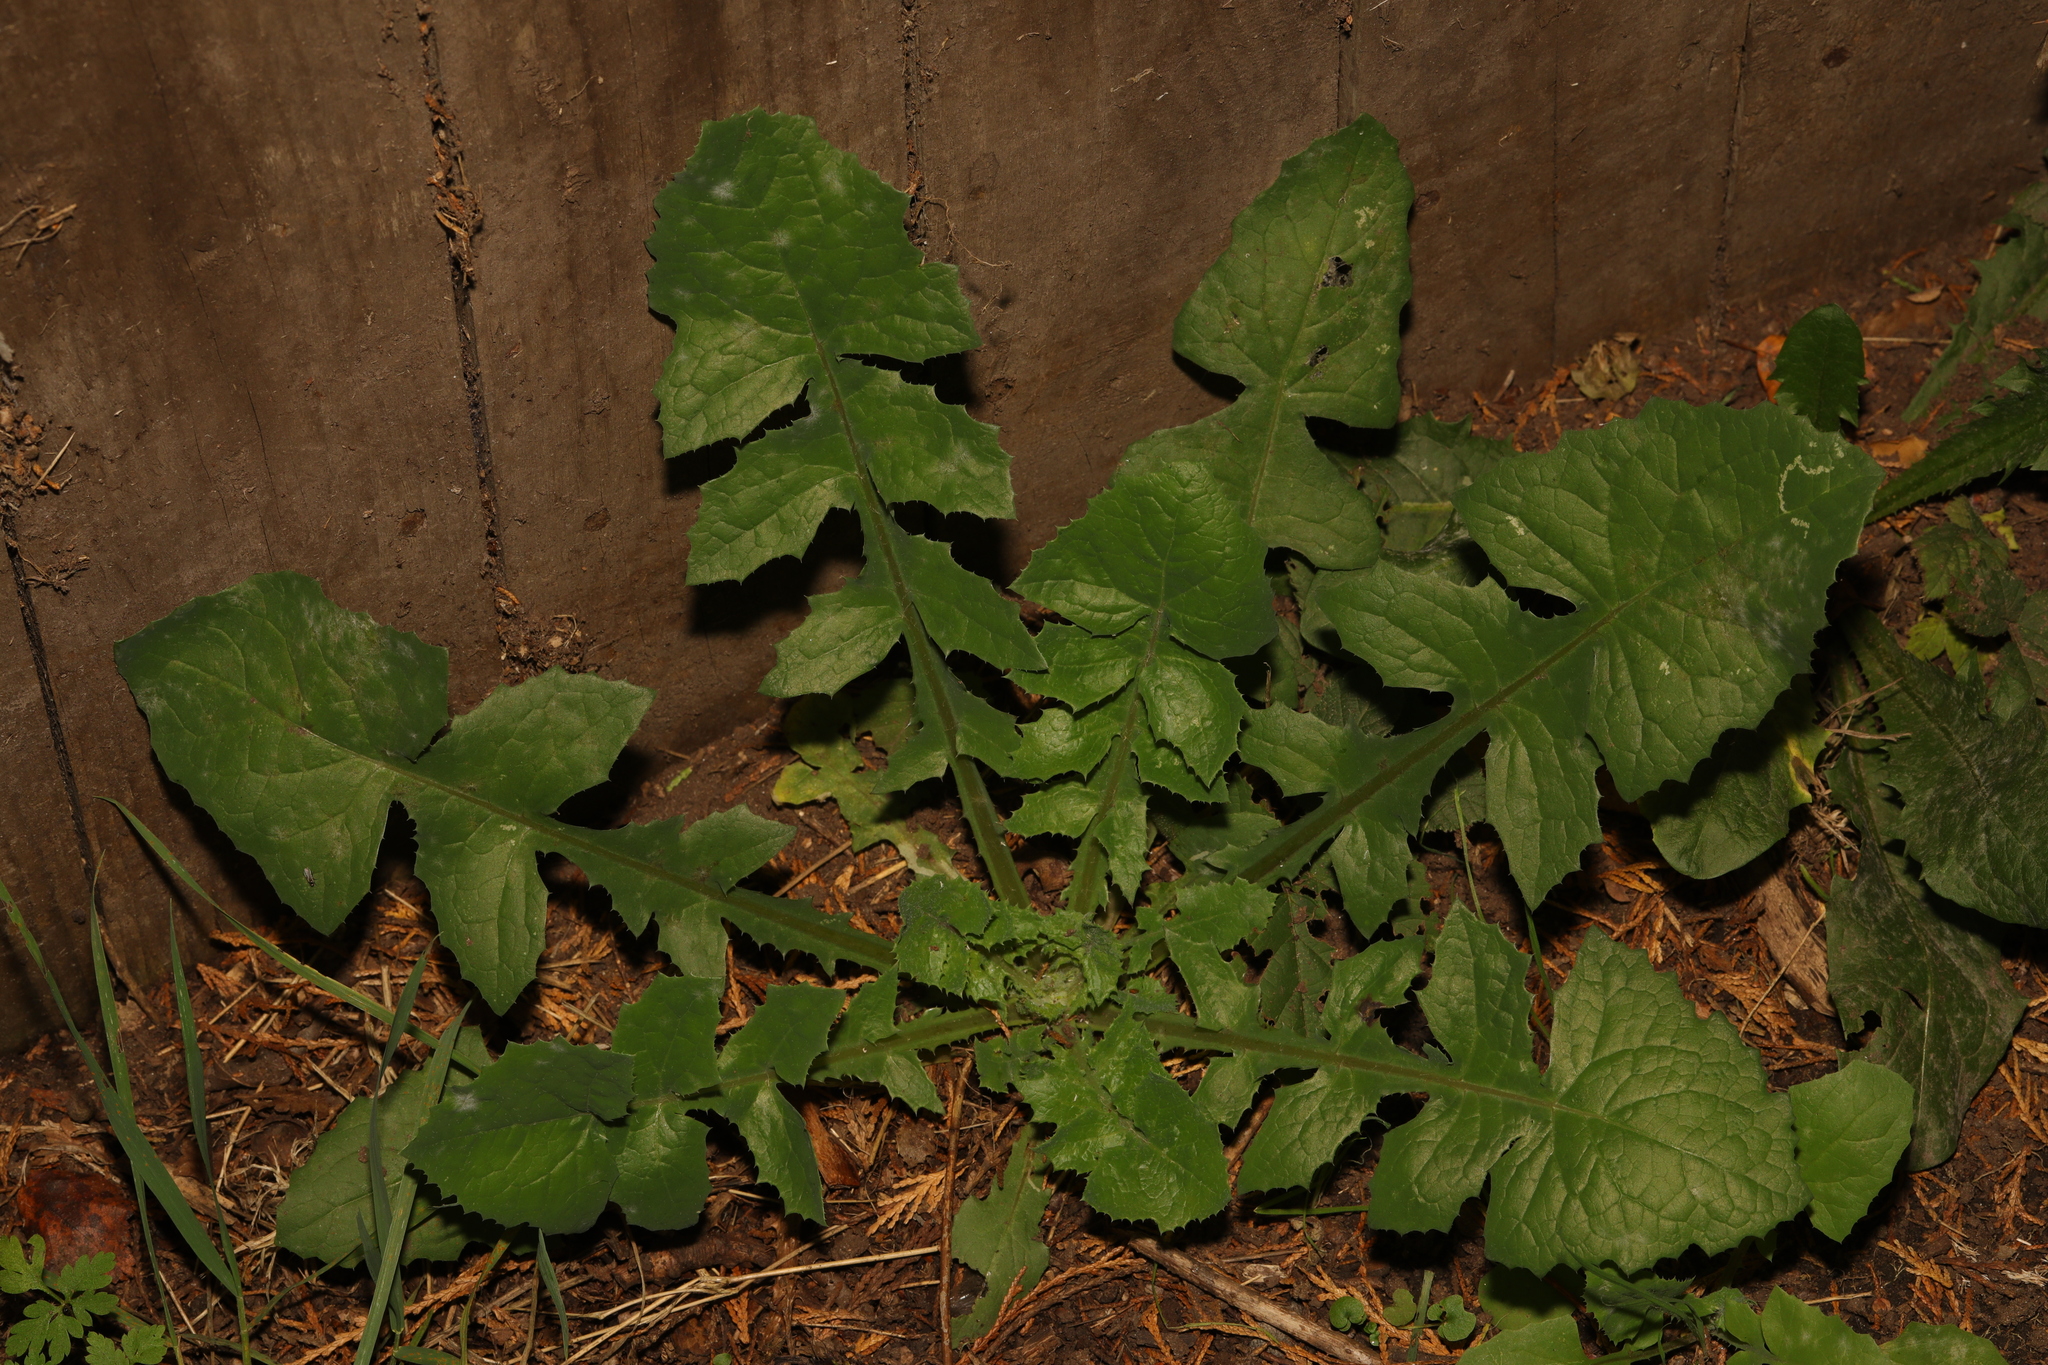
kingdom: Plantae
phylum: Tracheophyta
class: Magnoliopsida
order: Asterales
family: Asteraceae
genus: Sonchus
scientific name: Sonchus oleraceus
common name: Common sowthistle
